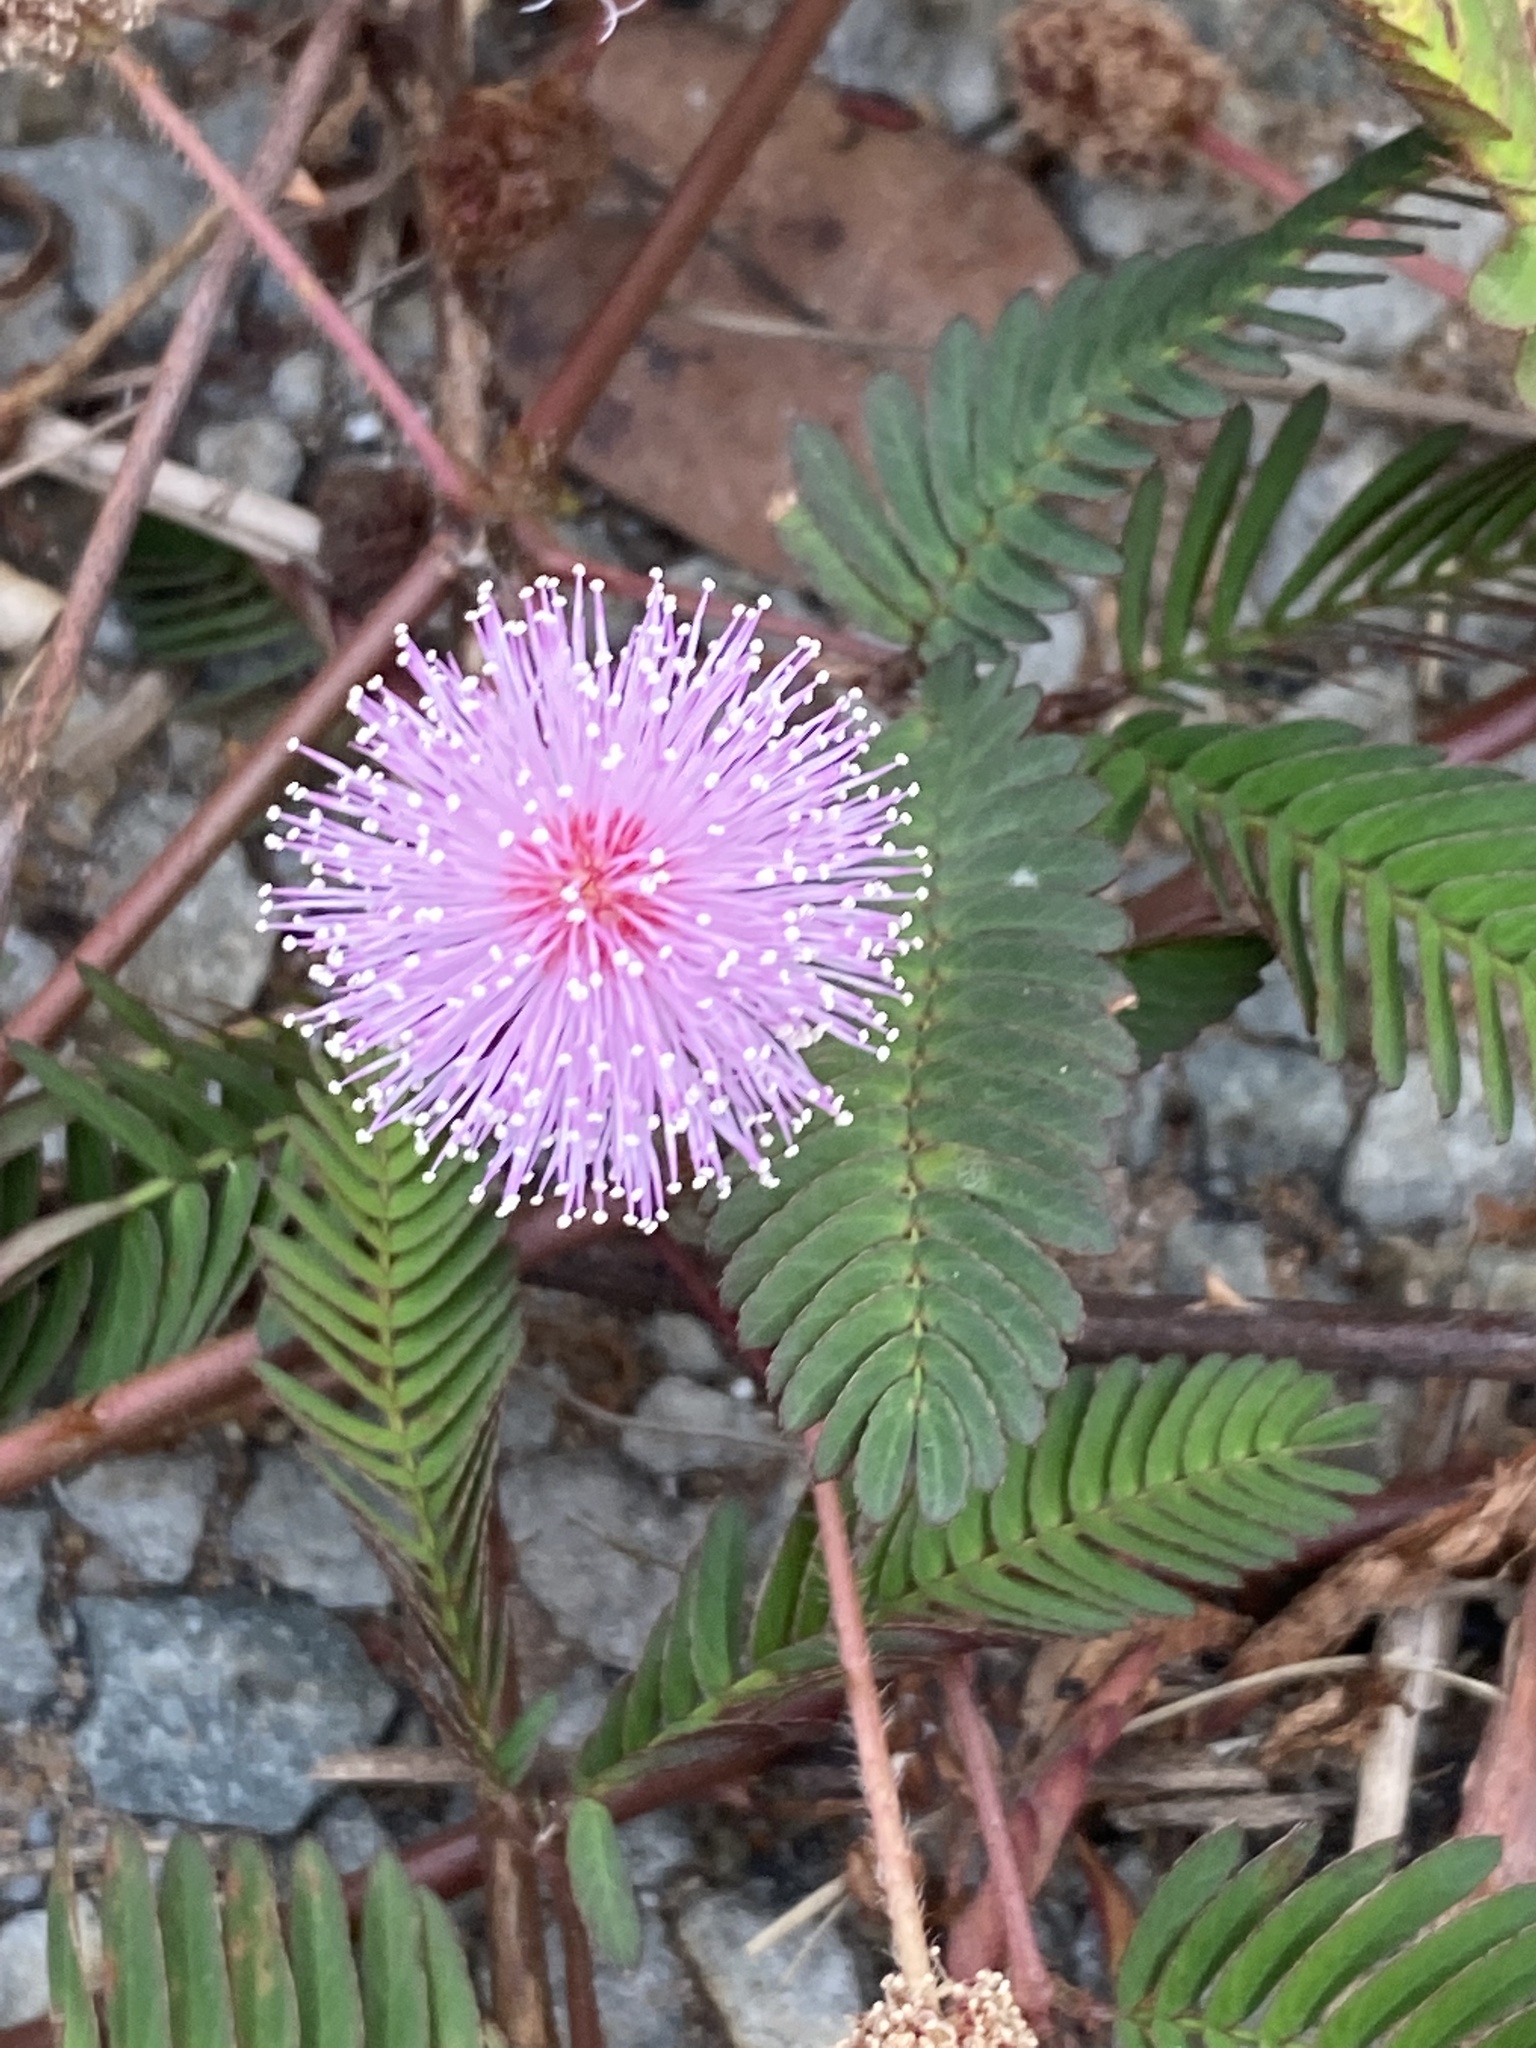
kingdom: Plantae
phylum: Tracheophyta
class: Magnoliopsida
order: Fabales
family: Fabaceae
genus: Mimosa
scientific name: Mimosa pudica
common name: Sensitive plant
